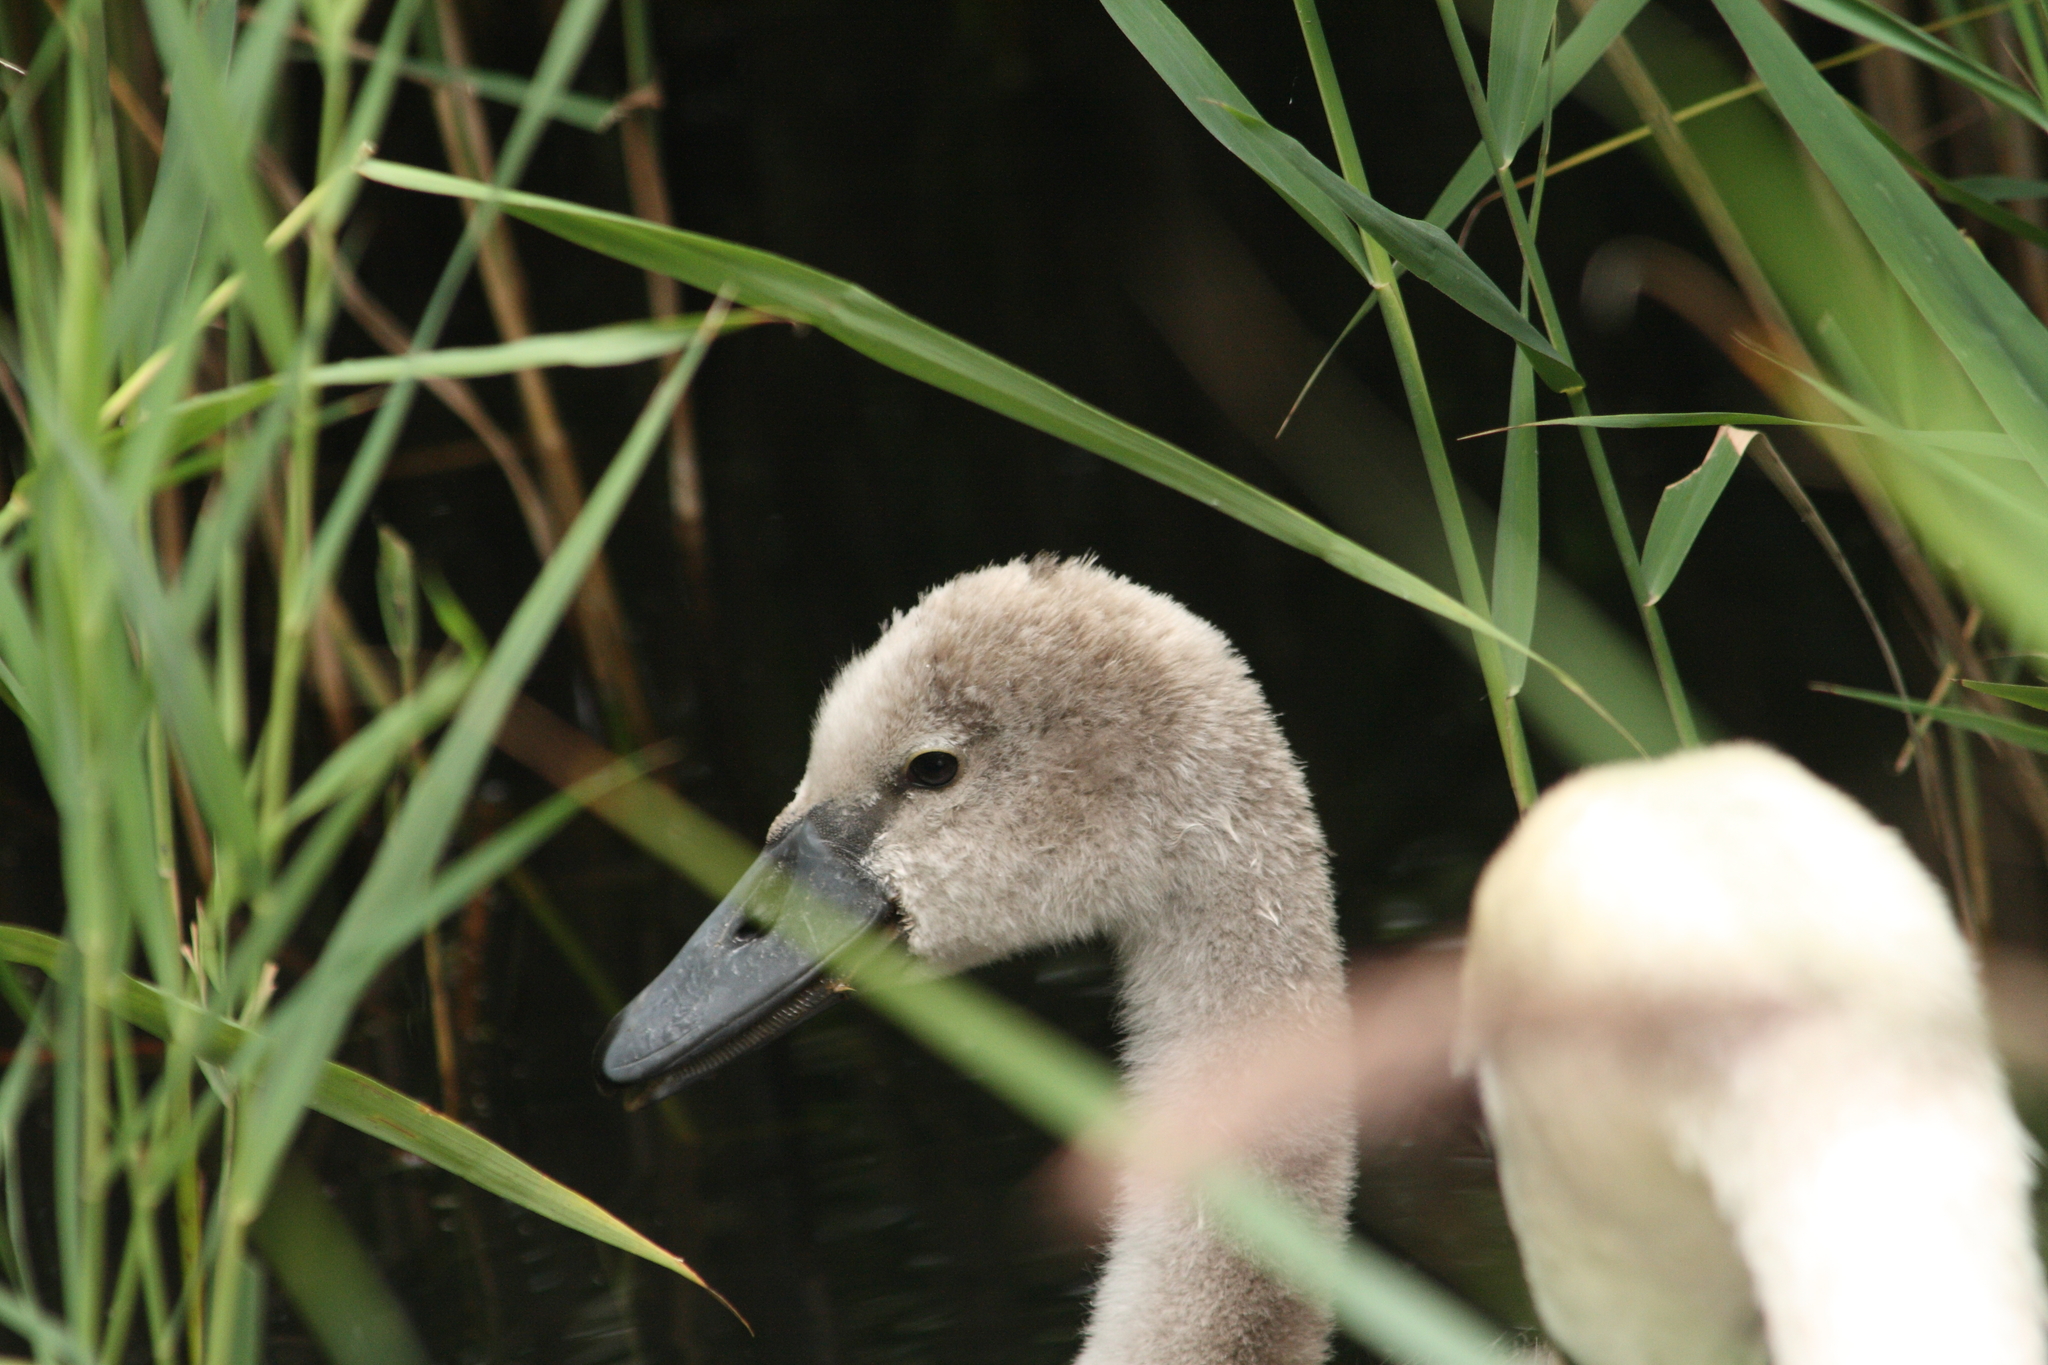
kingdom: Animalia
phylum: Chordata
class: Aves
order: Anseriformes
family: Anatidae
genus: Cygnus
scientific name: Cygnus olor
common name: Mute swan
